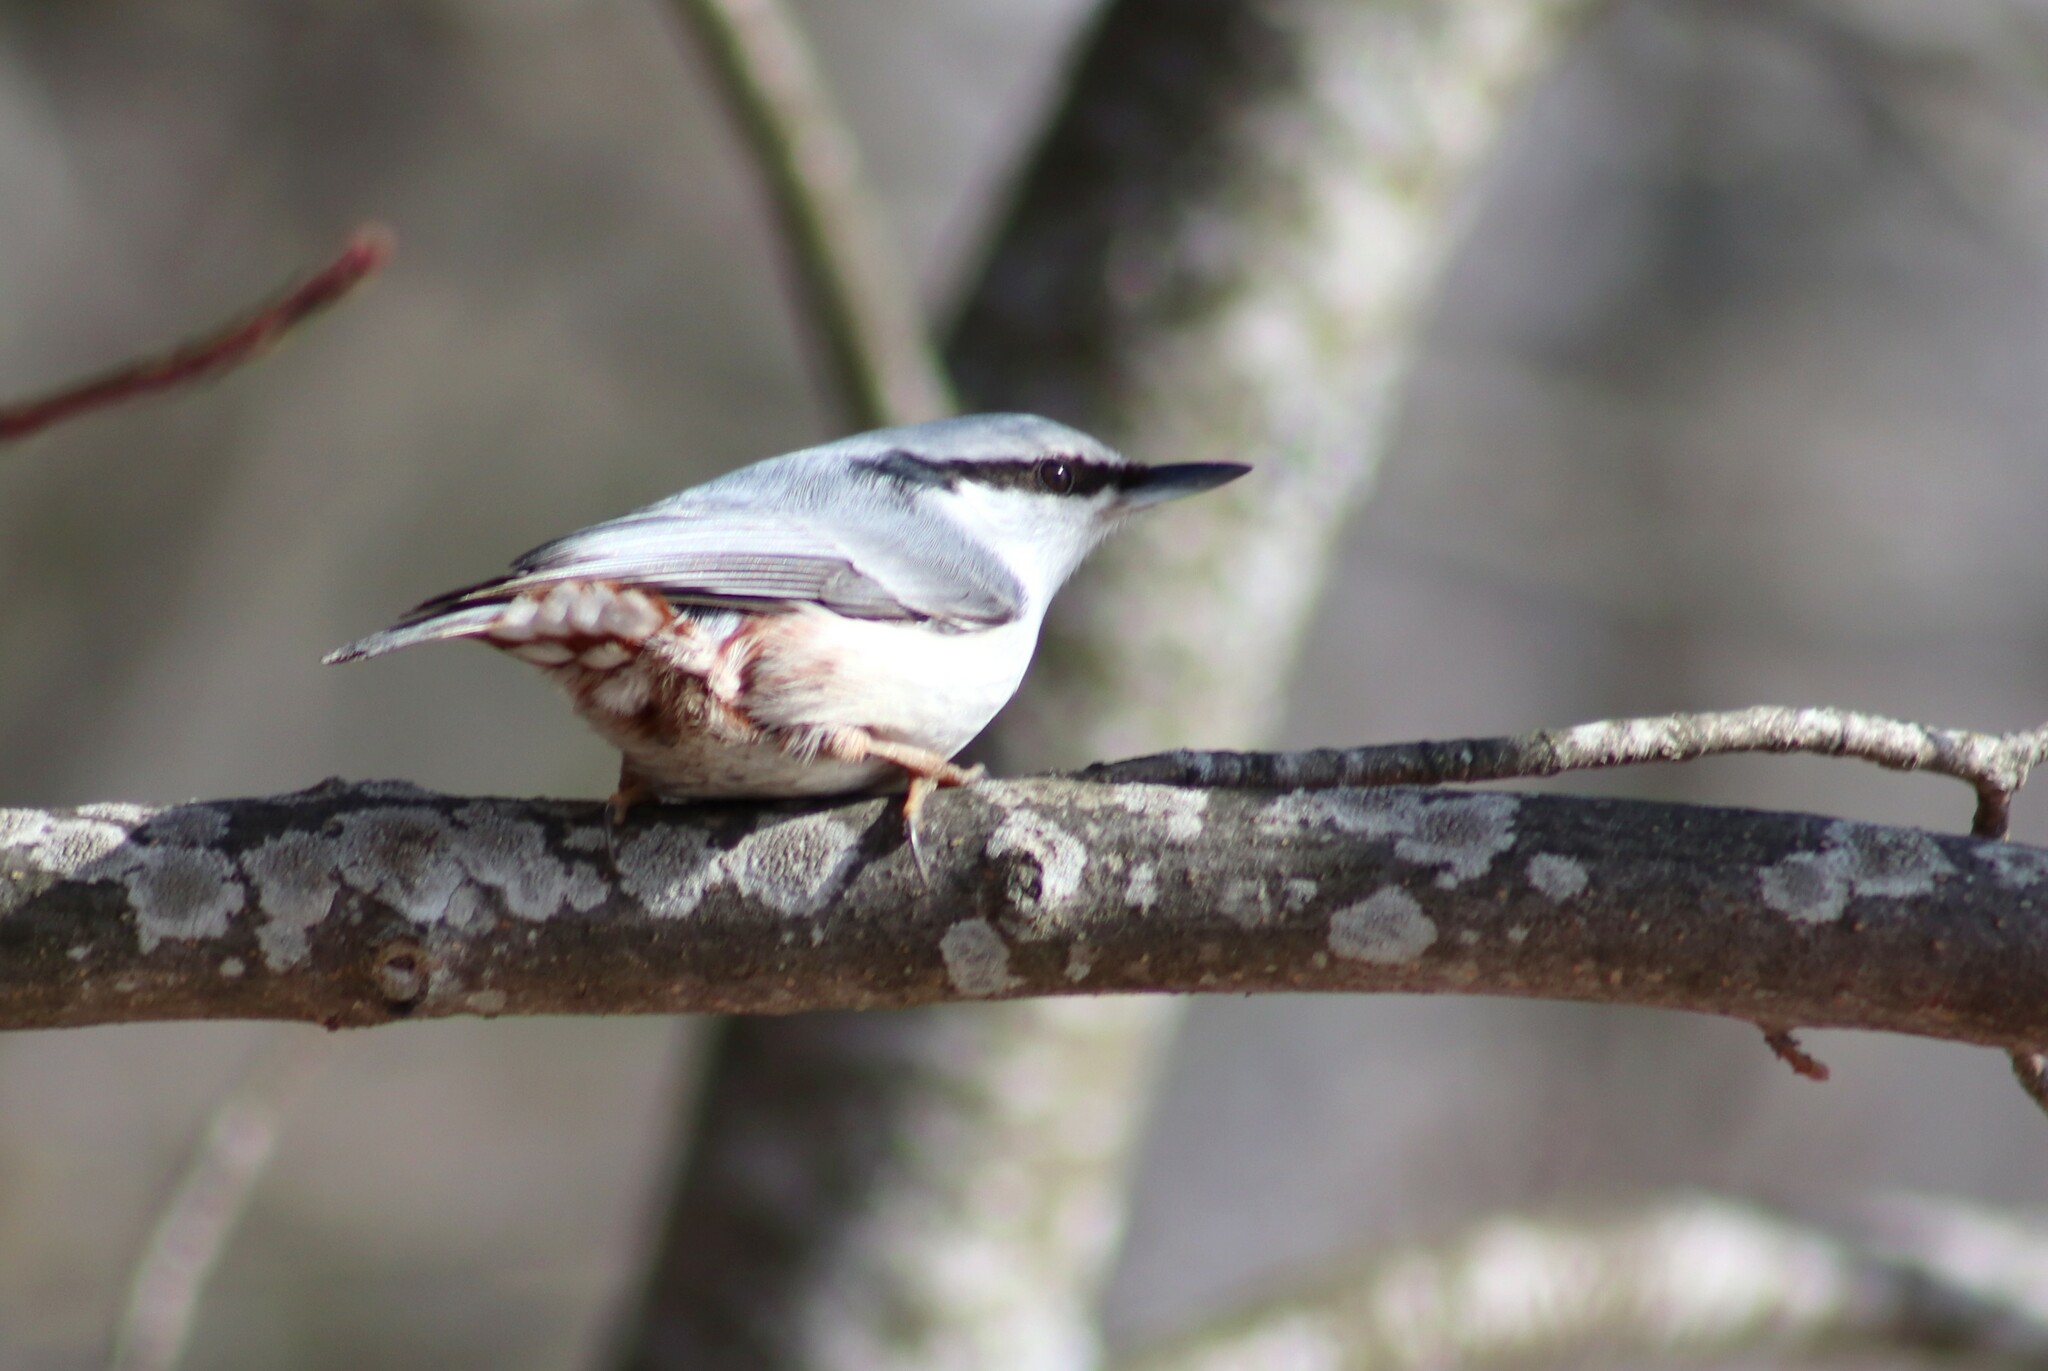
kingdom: Animalia
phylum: Chordata
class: Aves
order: Passeriformes
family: Sittidae
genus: Sitta
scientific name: Sitta europaea
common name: Eurasian nuthatch
